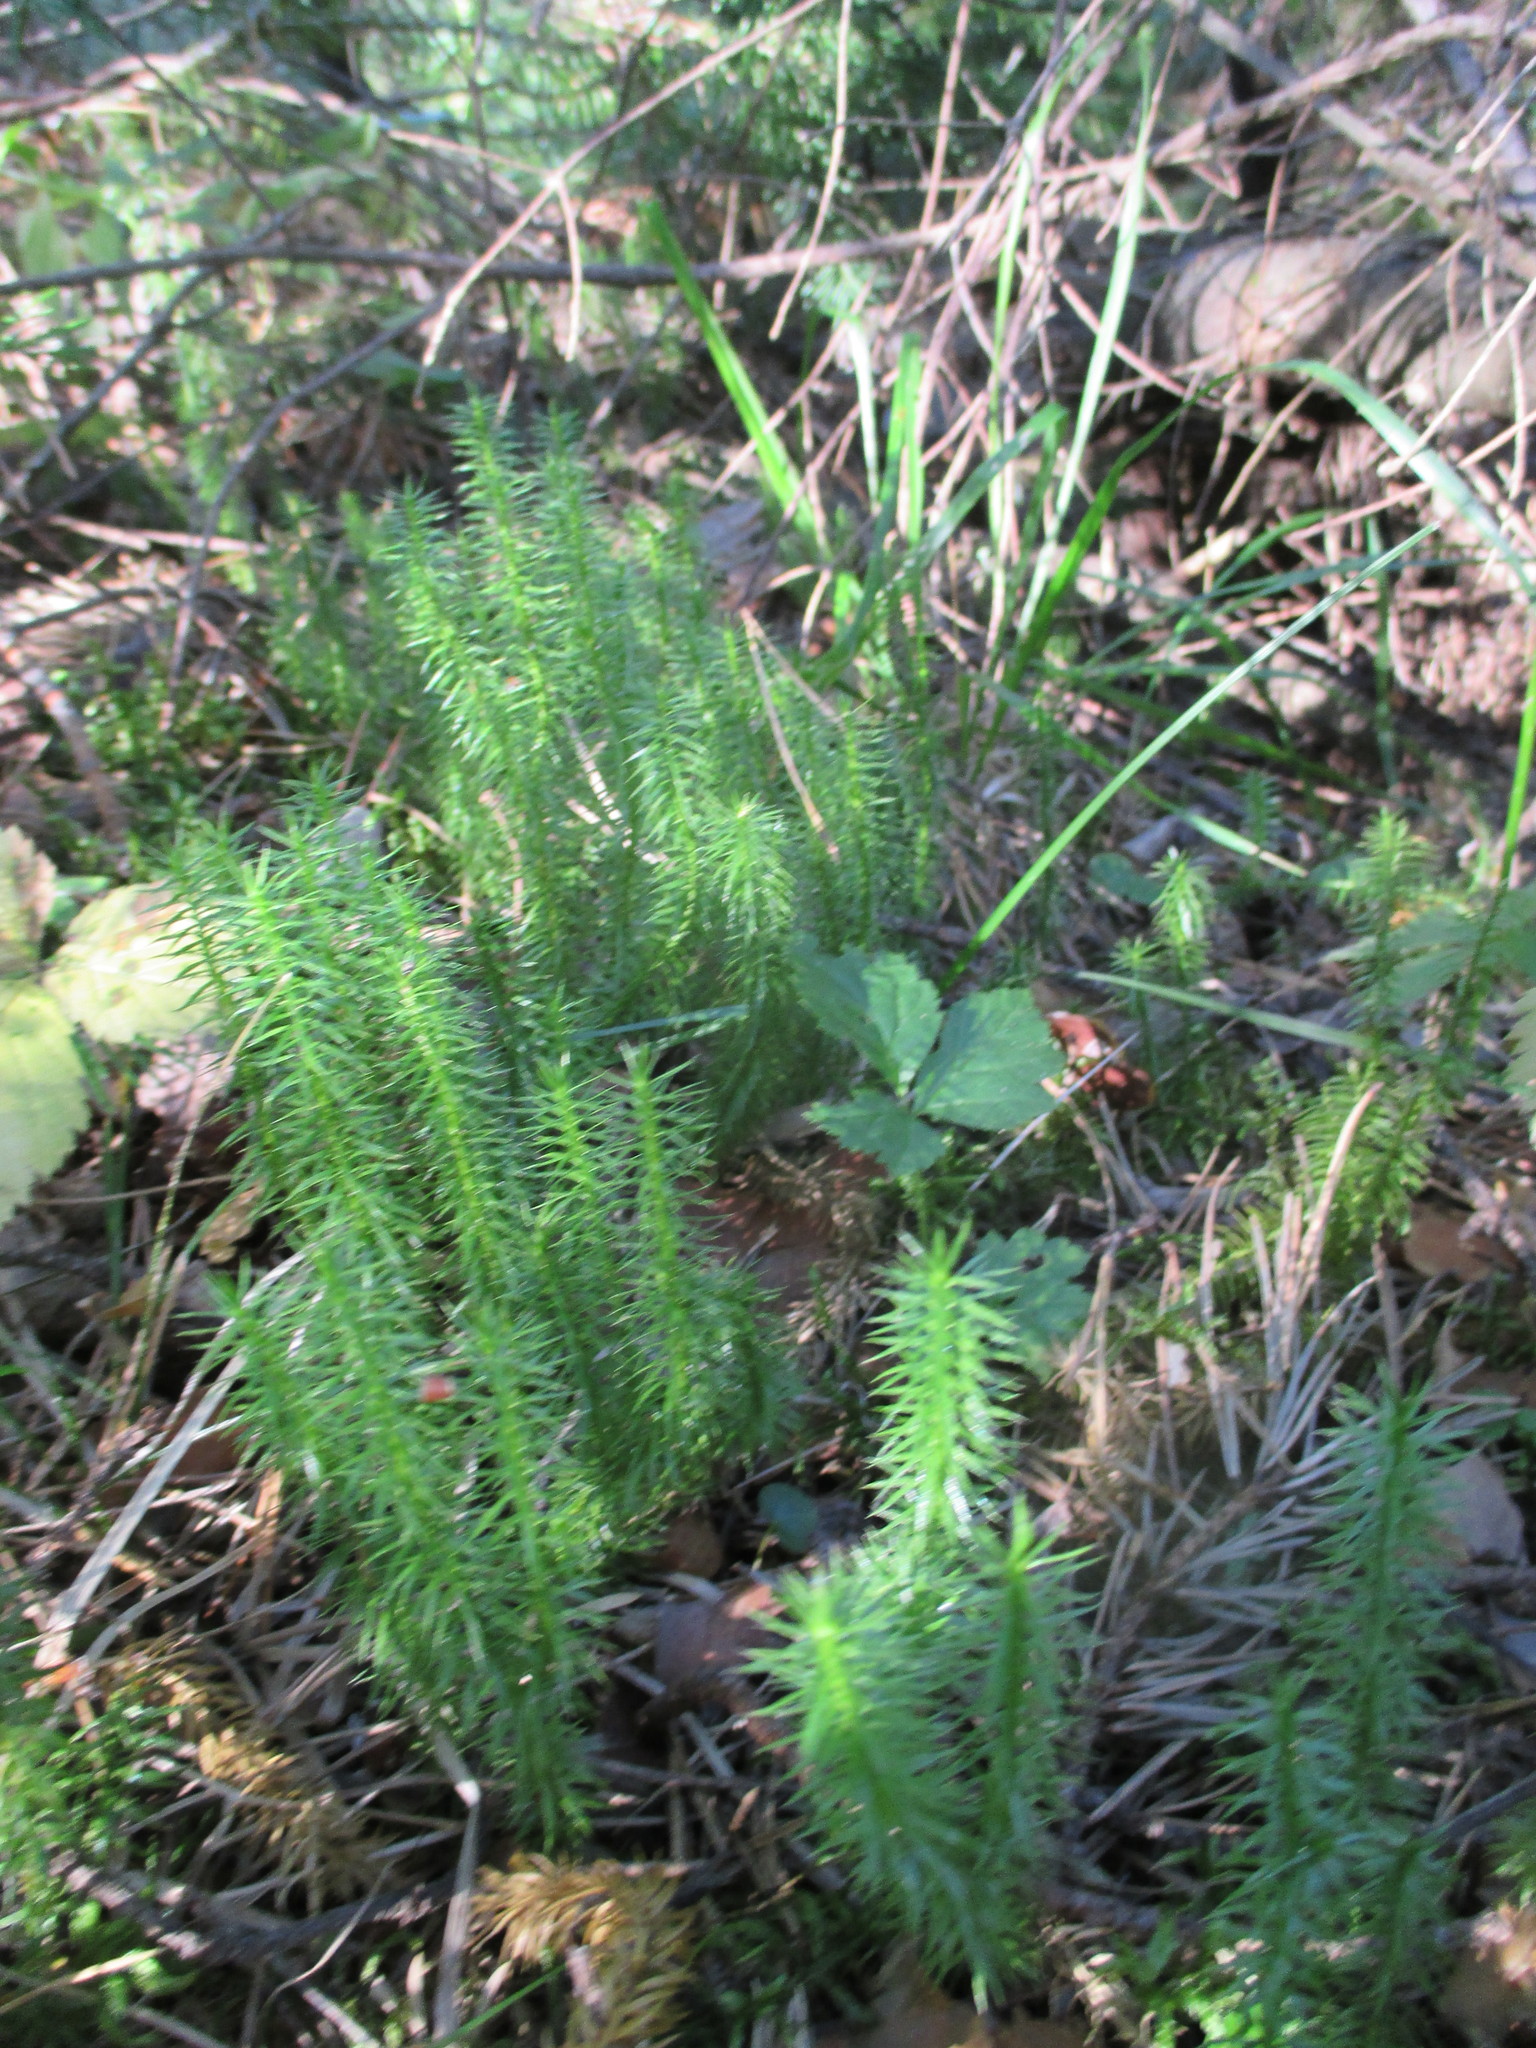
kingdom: Plantae
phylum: Tracheophyta
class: Lycopodiopsida
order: Lycopodiales
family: Lycopodiaceae
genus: Spinulum
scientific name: Spinulum annotinum
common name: Interrupted club-moss
